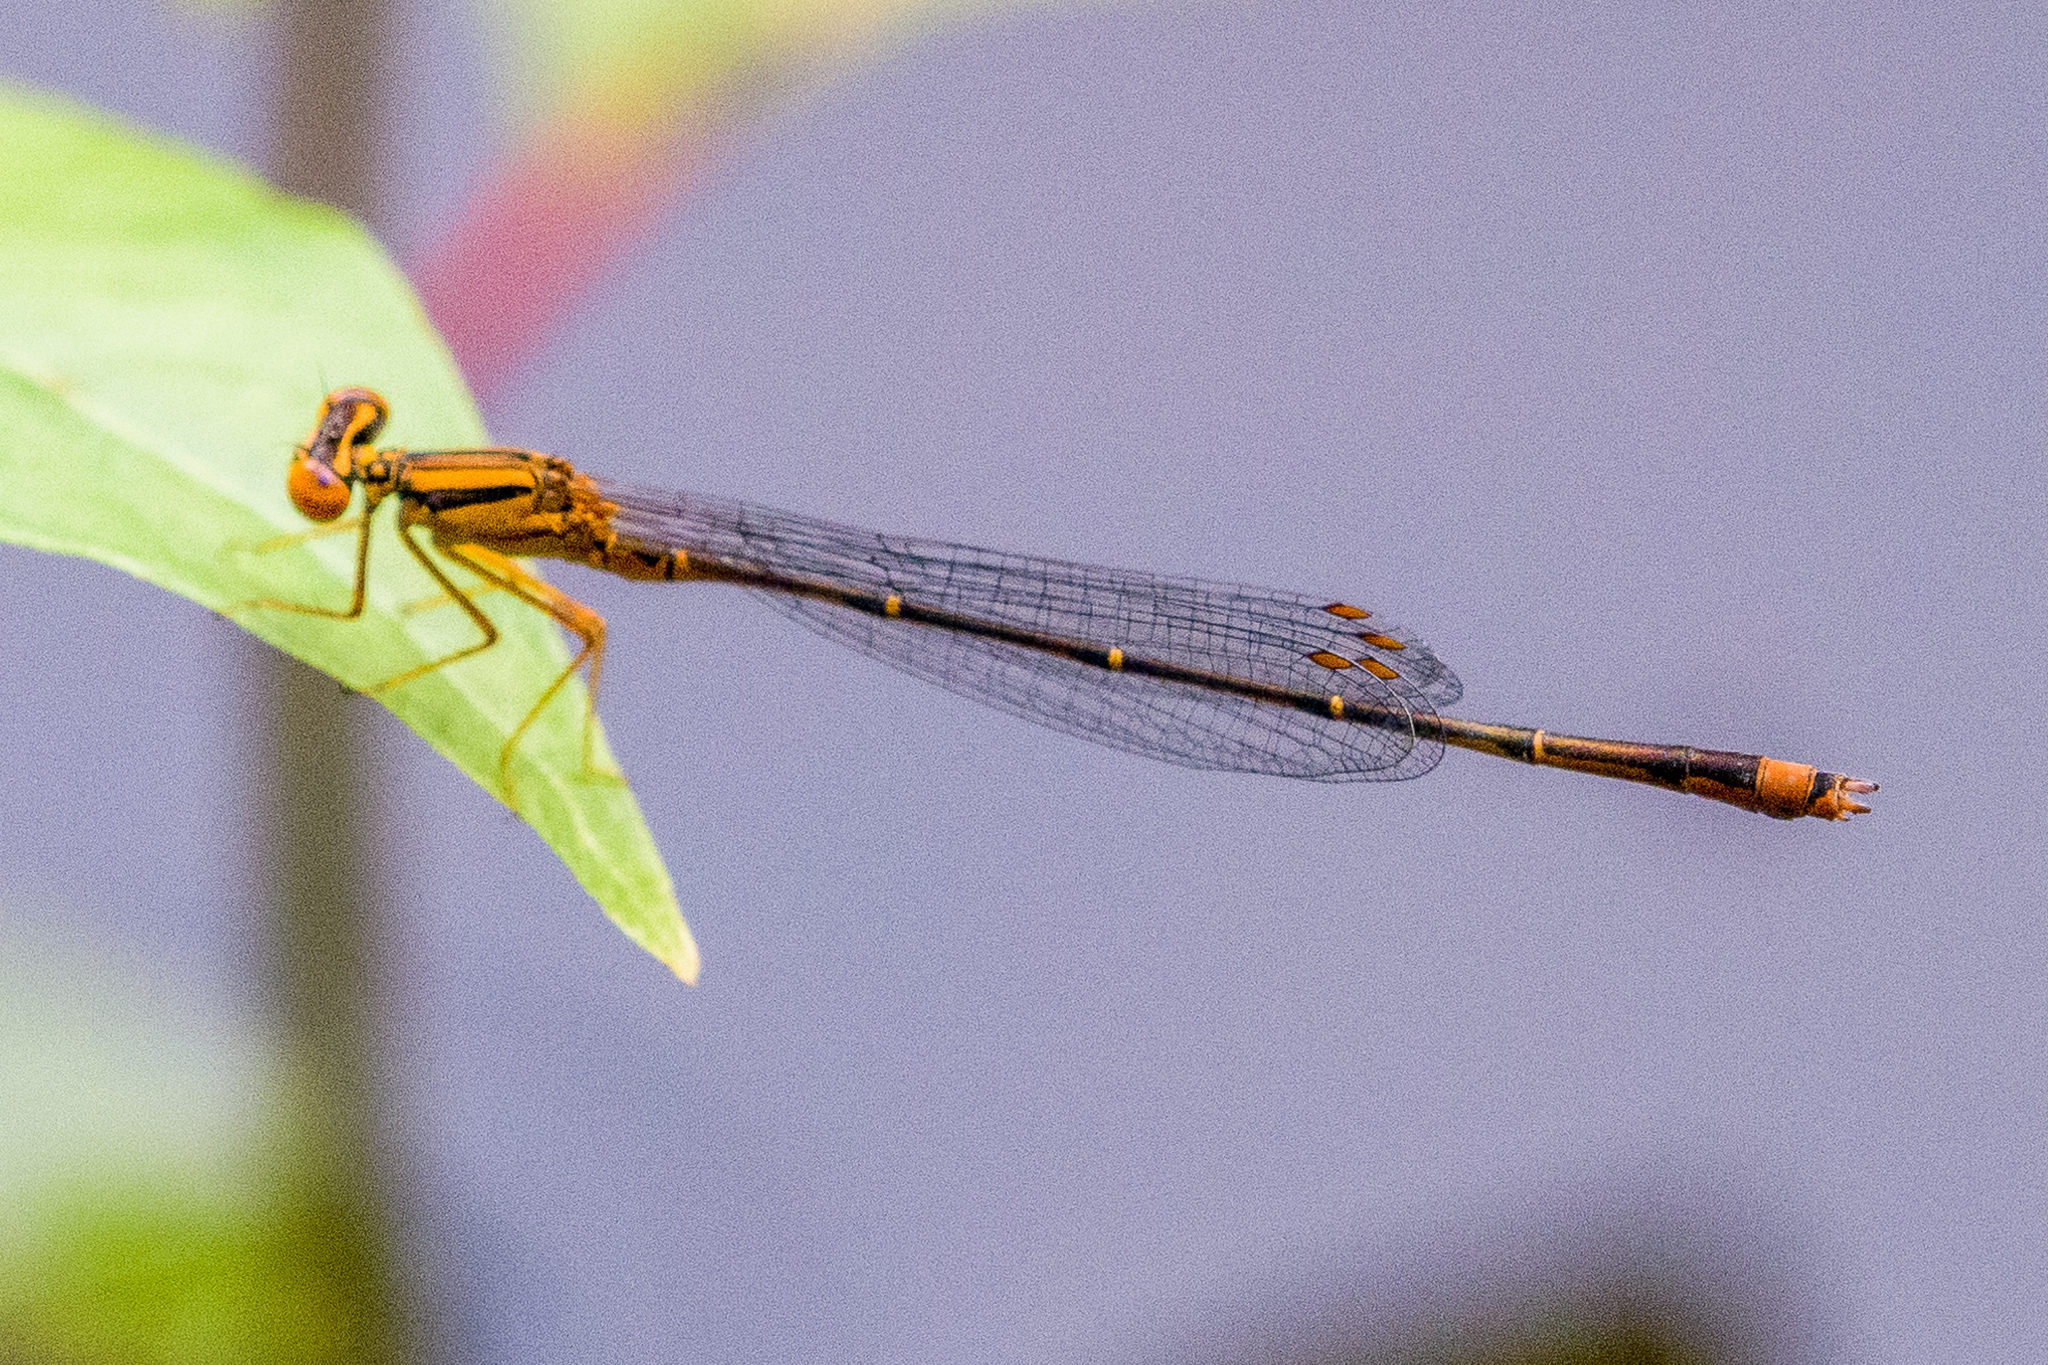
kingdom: Animalia
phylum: Arthropoda
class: Insecta
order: Odonata
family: Coenagrionidae
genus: Enallagma
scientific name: Enallagma signatum
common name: Orange bluet
